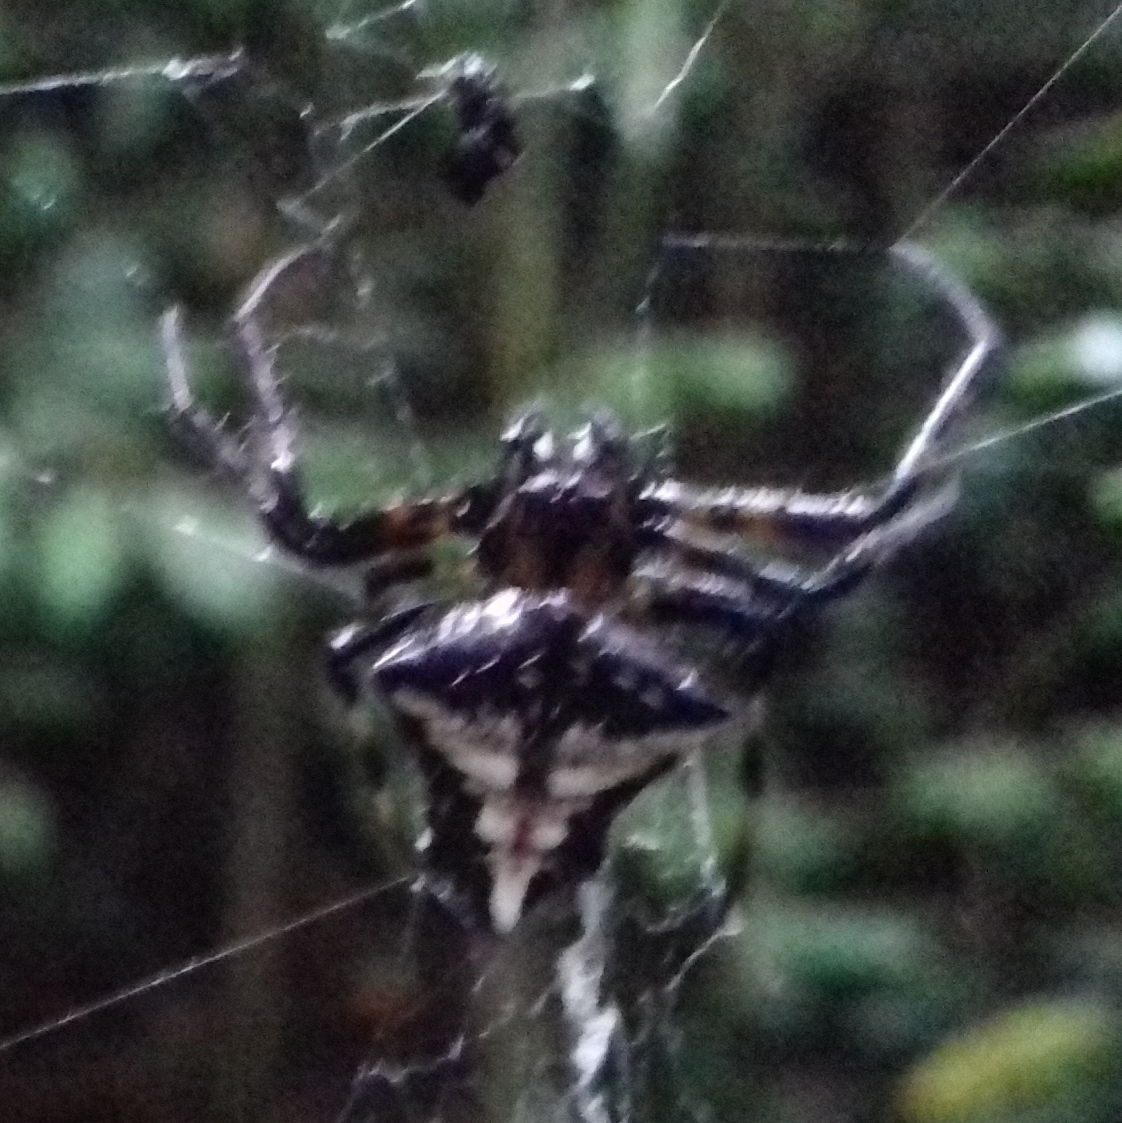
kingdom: Animalia
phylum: Arthropoda
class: Arachnida
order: Araneae
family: Araneidae
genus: Verrucosa
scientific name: Verrucosa scapofracta
